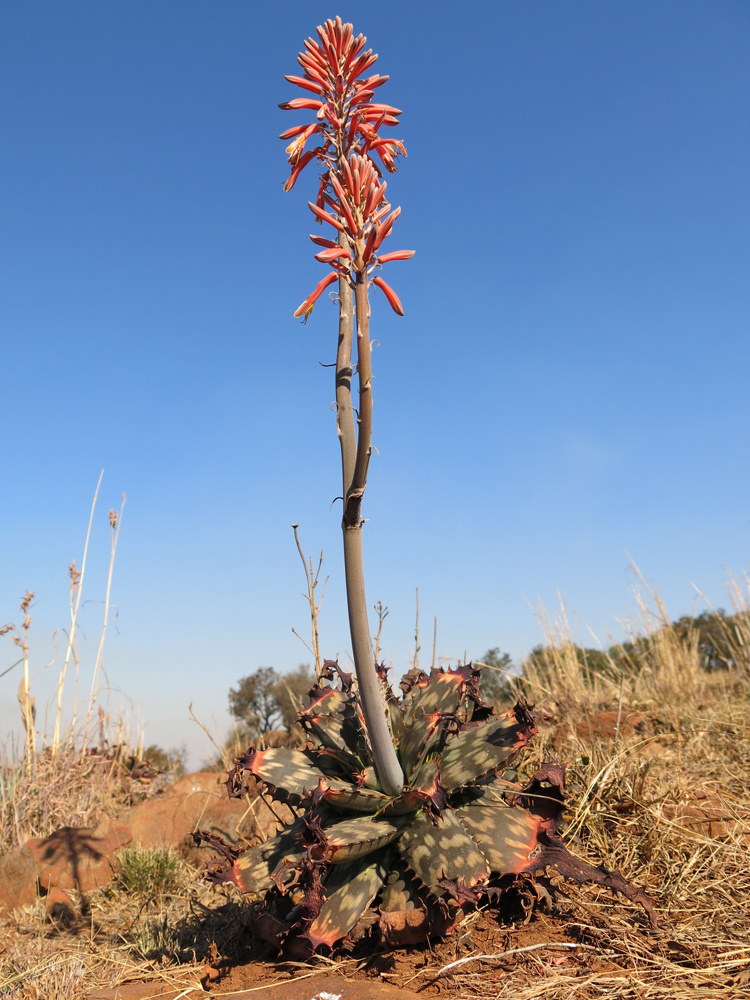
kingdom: Plantae
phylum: Tracheophyta
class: Liliopsida
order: Asparagales
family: Asphodelaceae
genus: Aloe
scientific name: Aloe davyana
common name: Spotted aloe
